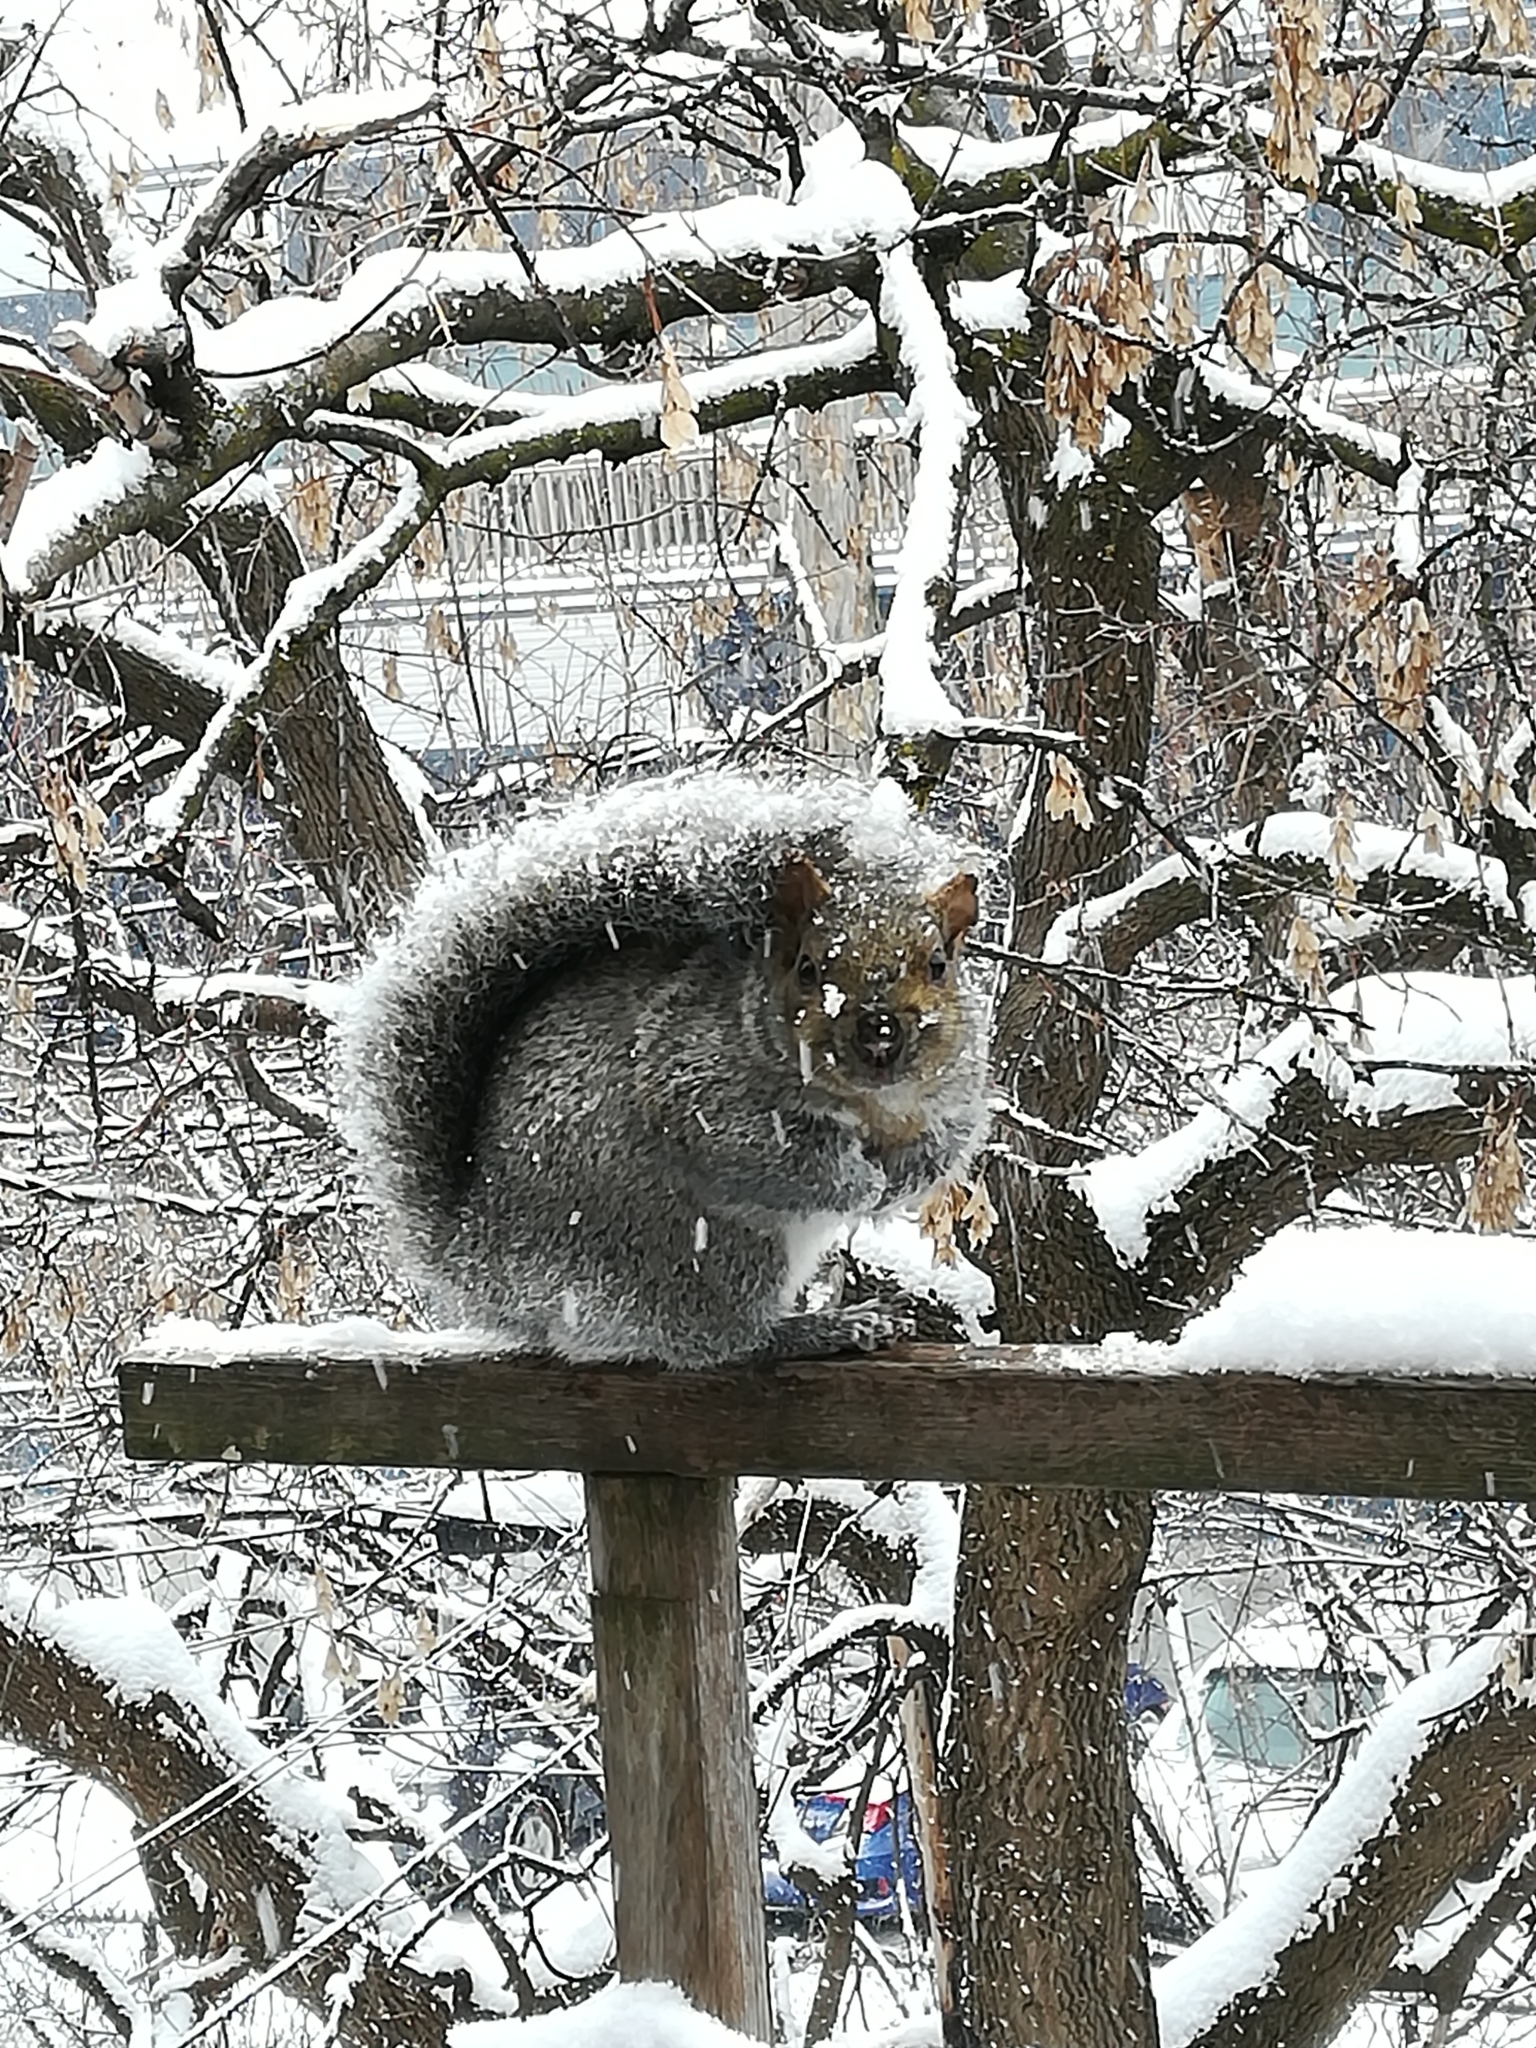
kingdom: Animalia
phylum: Chordata
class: Mammalia
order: Rodentia
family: Sciuridae
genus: Sciurus
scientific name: Sciurus carolinensis
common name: Eastern gray squirrel
